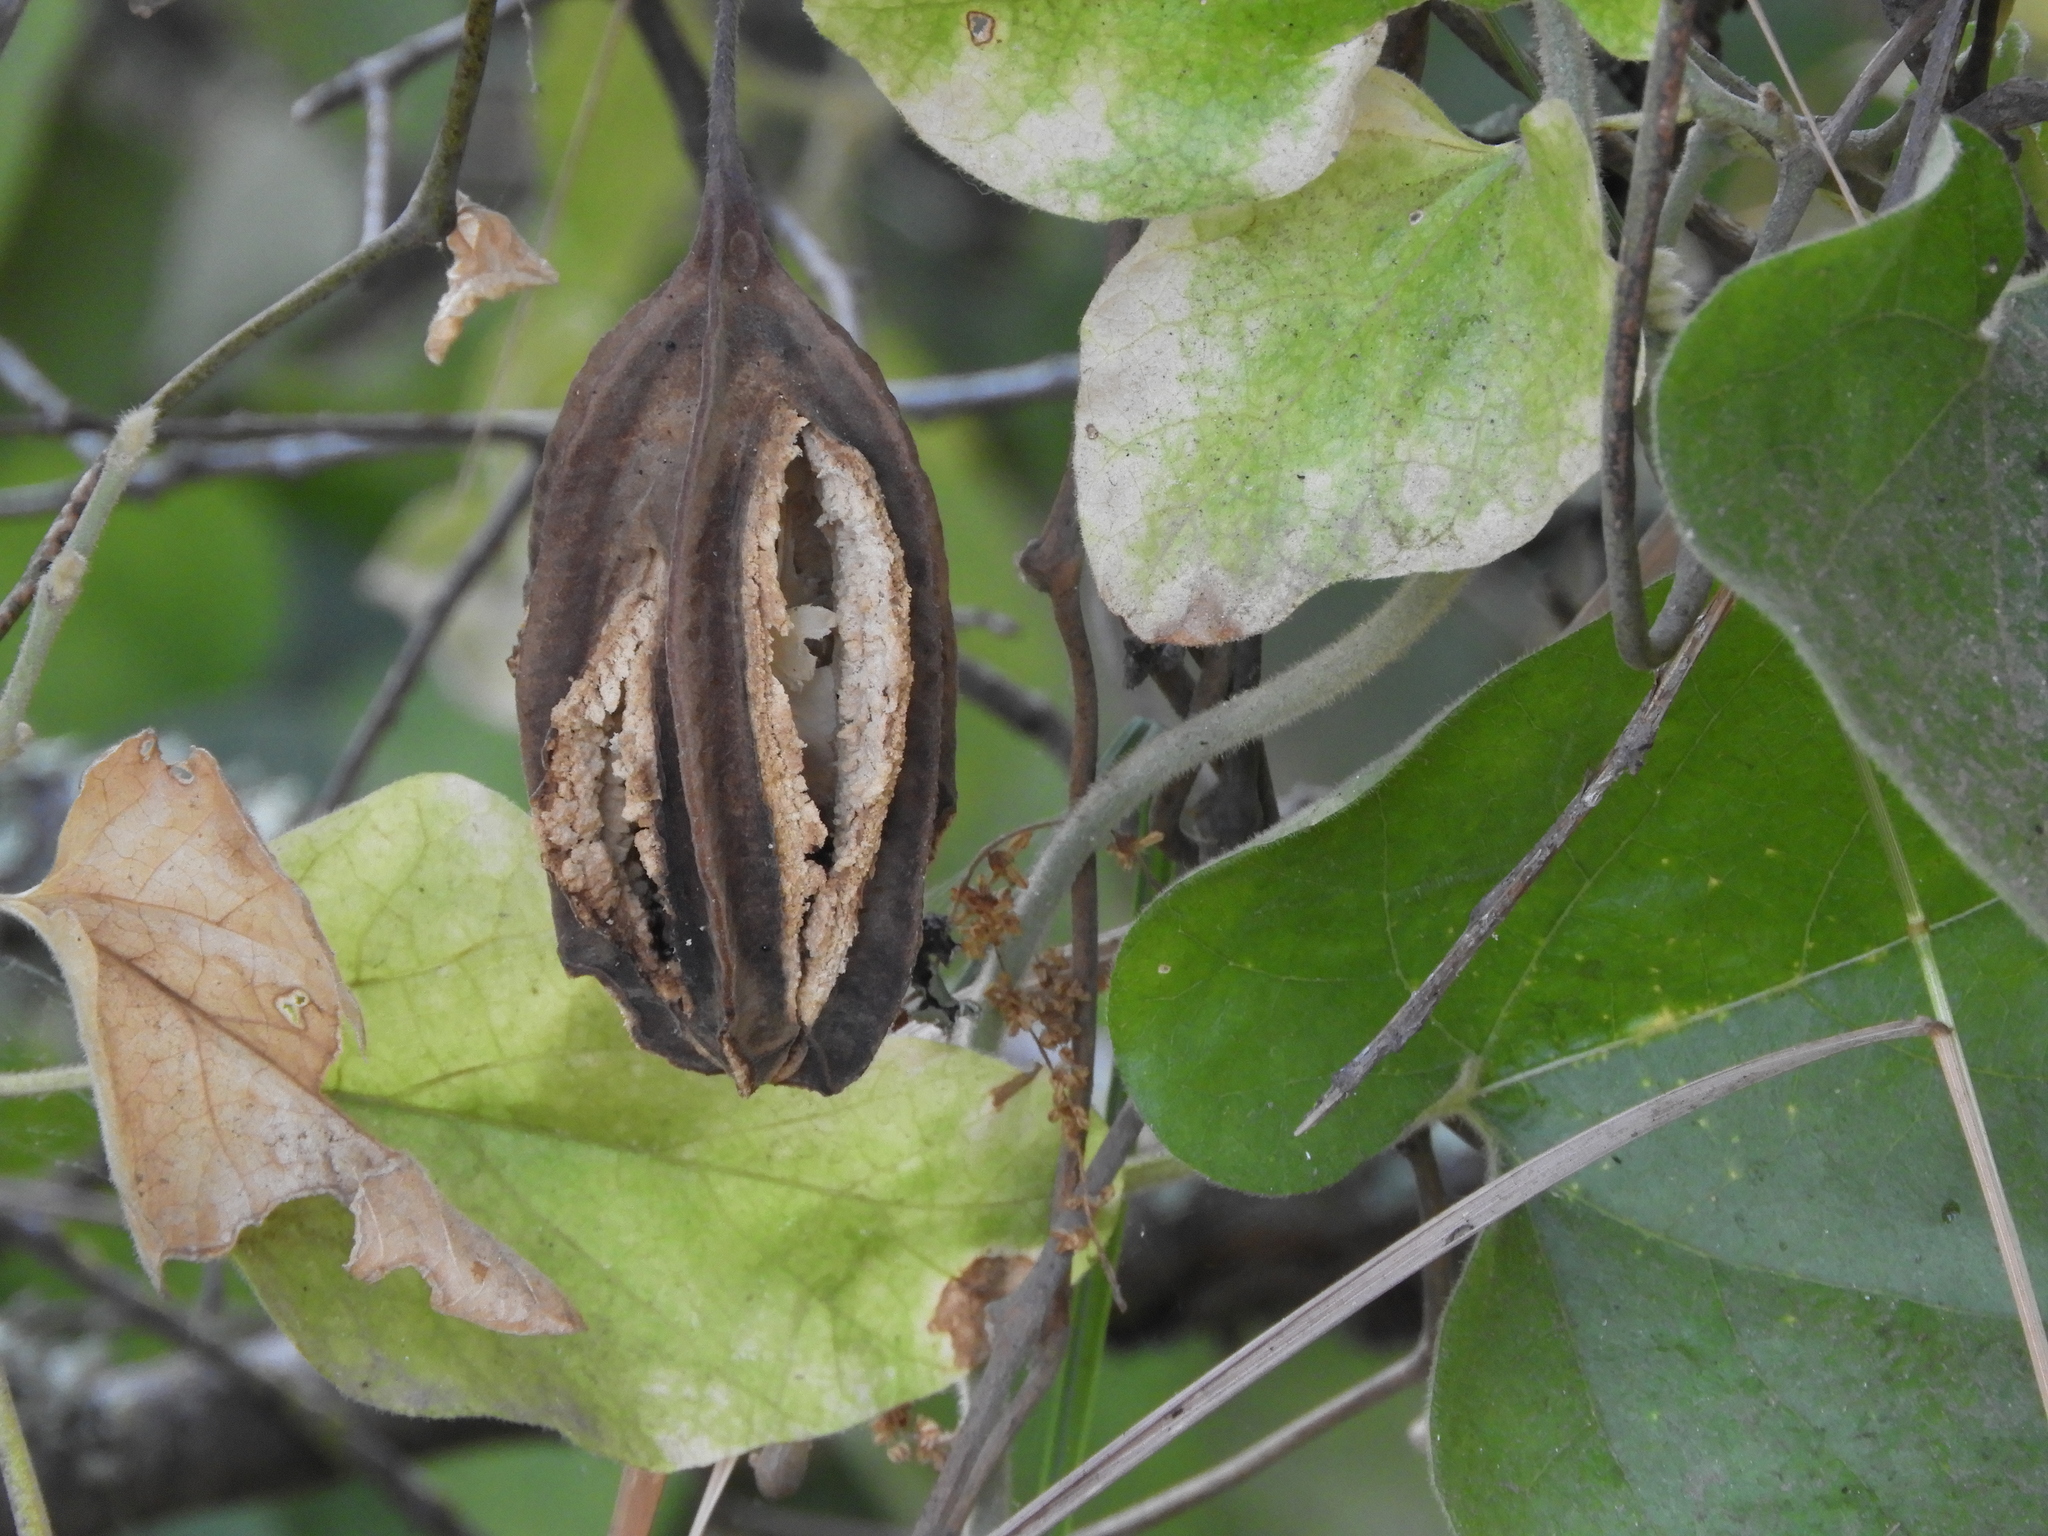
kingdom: Plantae
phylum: Tracheophyta
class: Magnoliopsida
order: Piperales
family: Aristolochiaceae
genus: Isotrema
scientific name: Isotrema californicum
